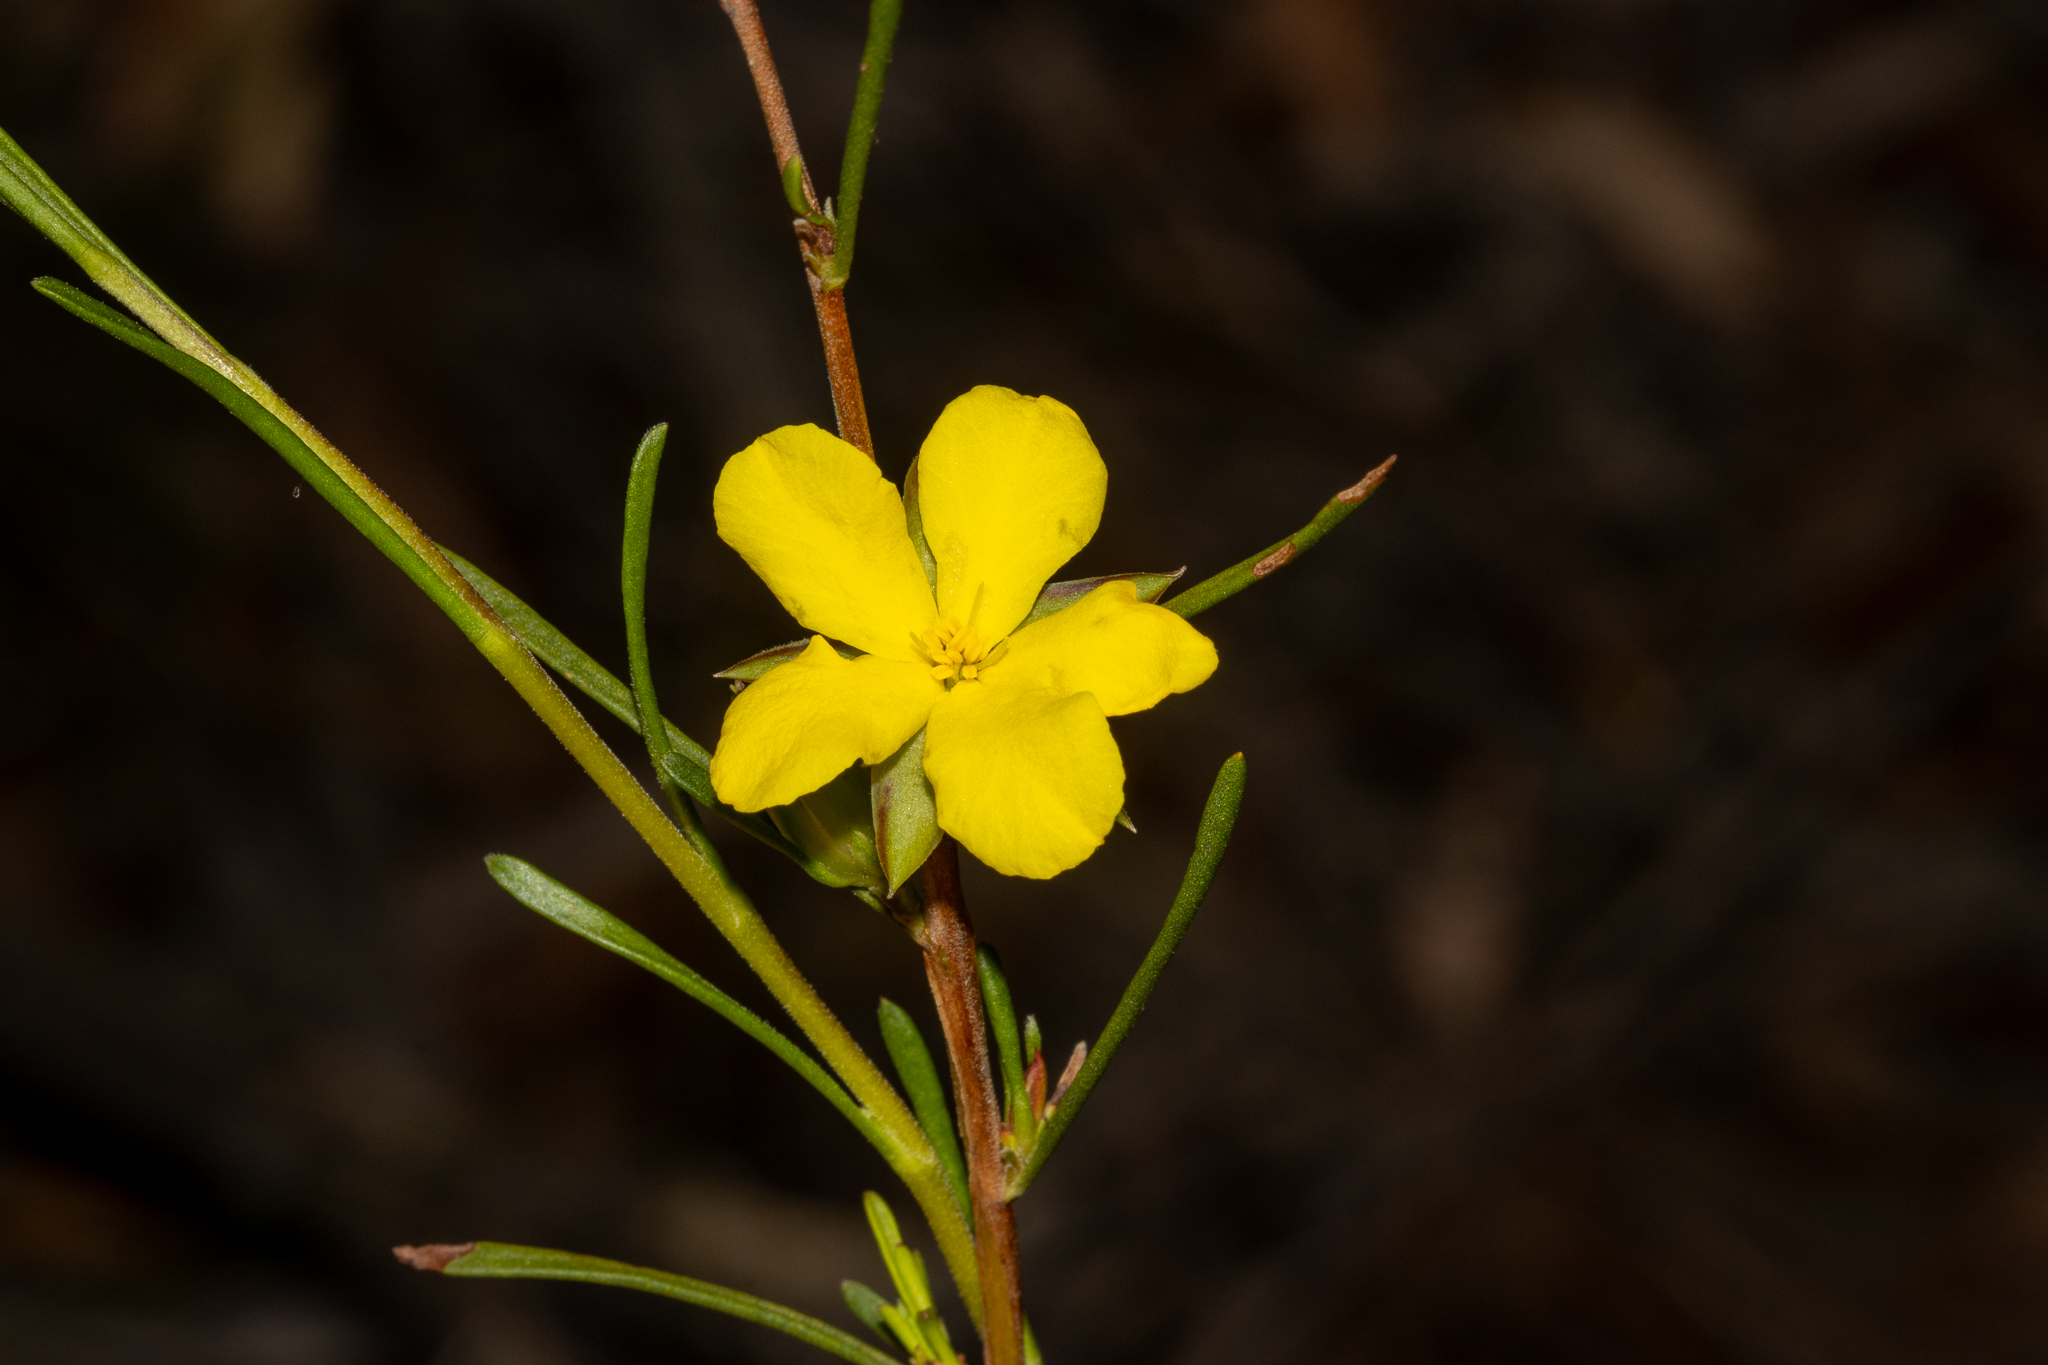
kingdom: Plantae
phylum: Tracheophyta
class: Magnoliopsida
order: Dilleniales
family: Dilleniaceae
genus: Hibbertia
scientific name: Hibbertia virgata
